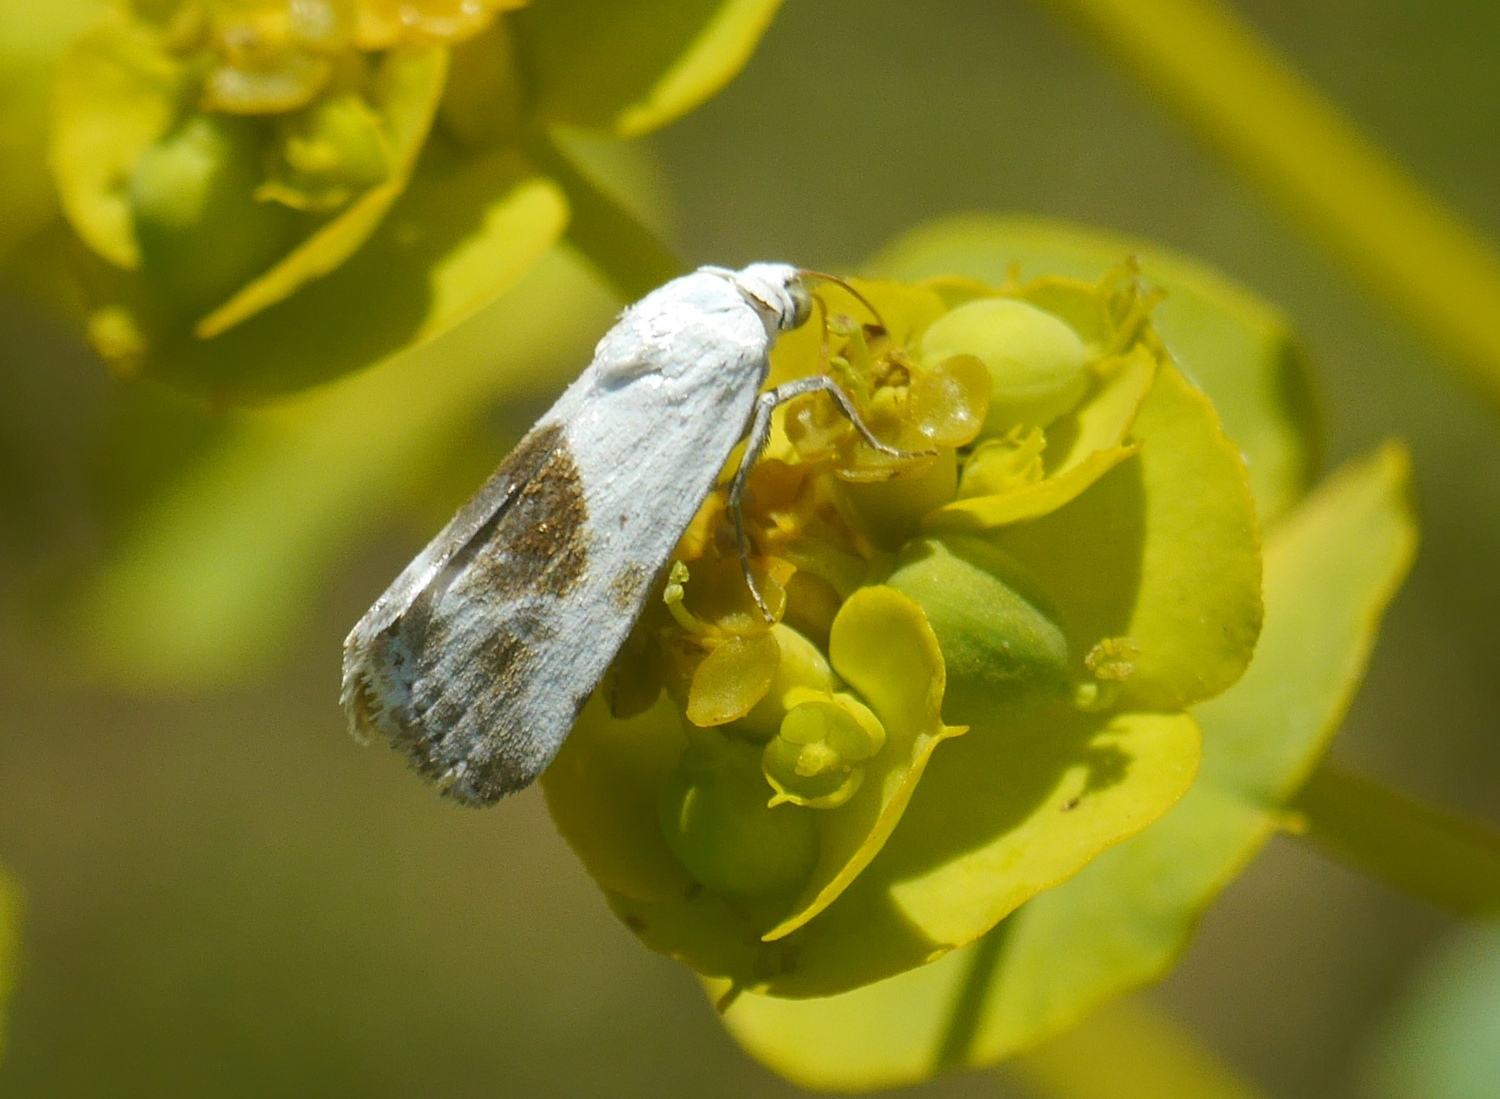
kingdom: Animalia
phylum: Arthropoda
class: Insecta
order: Lepidoptera
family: Noctuidae
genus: Acontia
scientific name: Acontia candefacta
